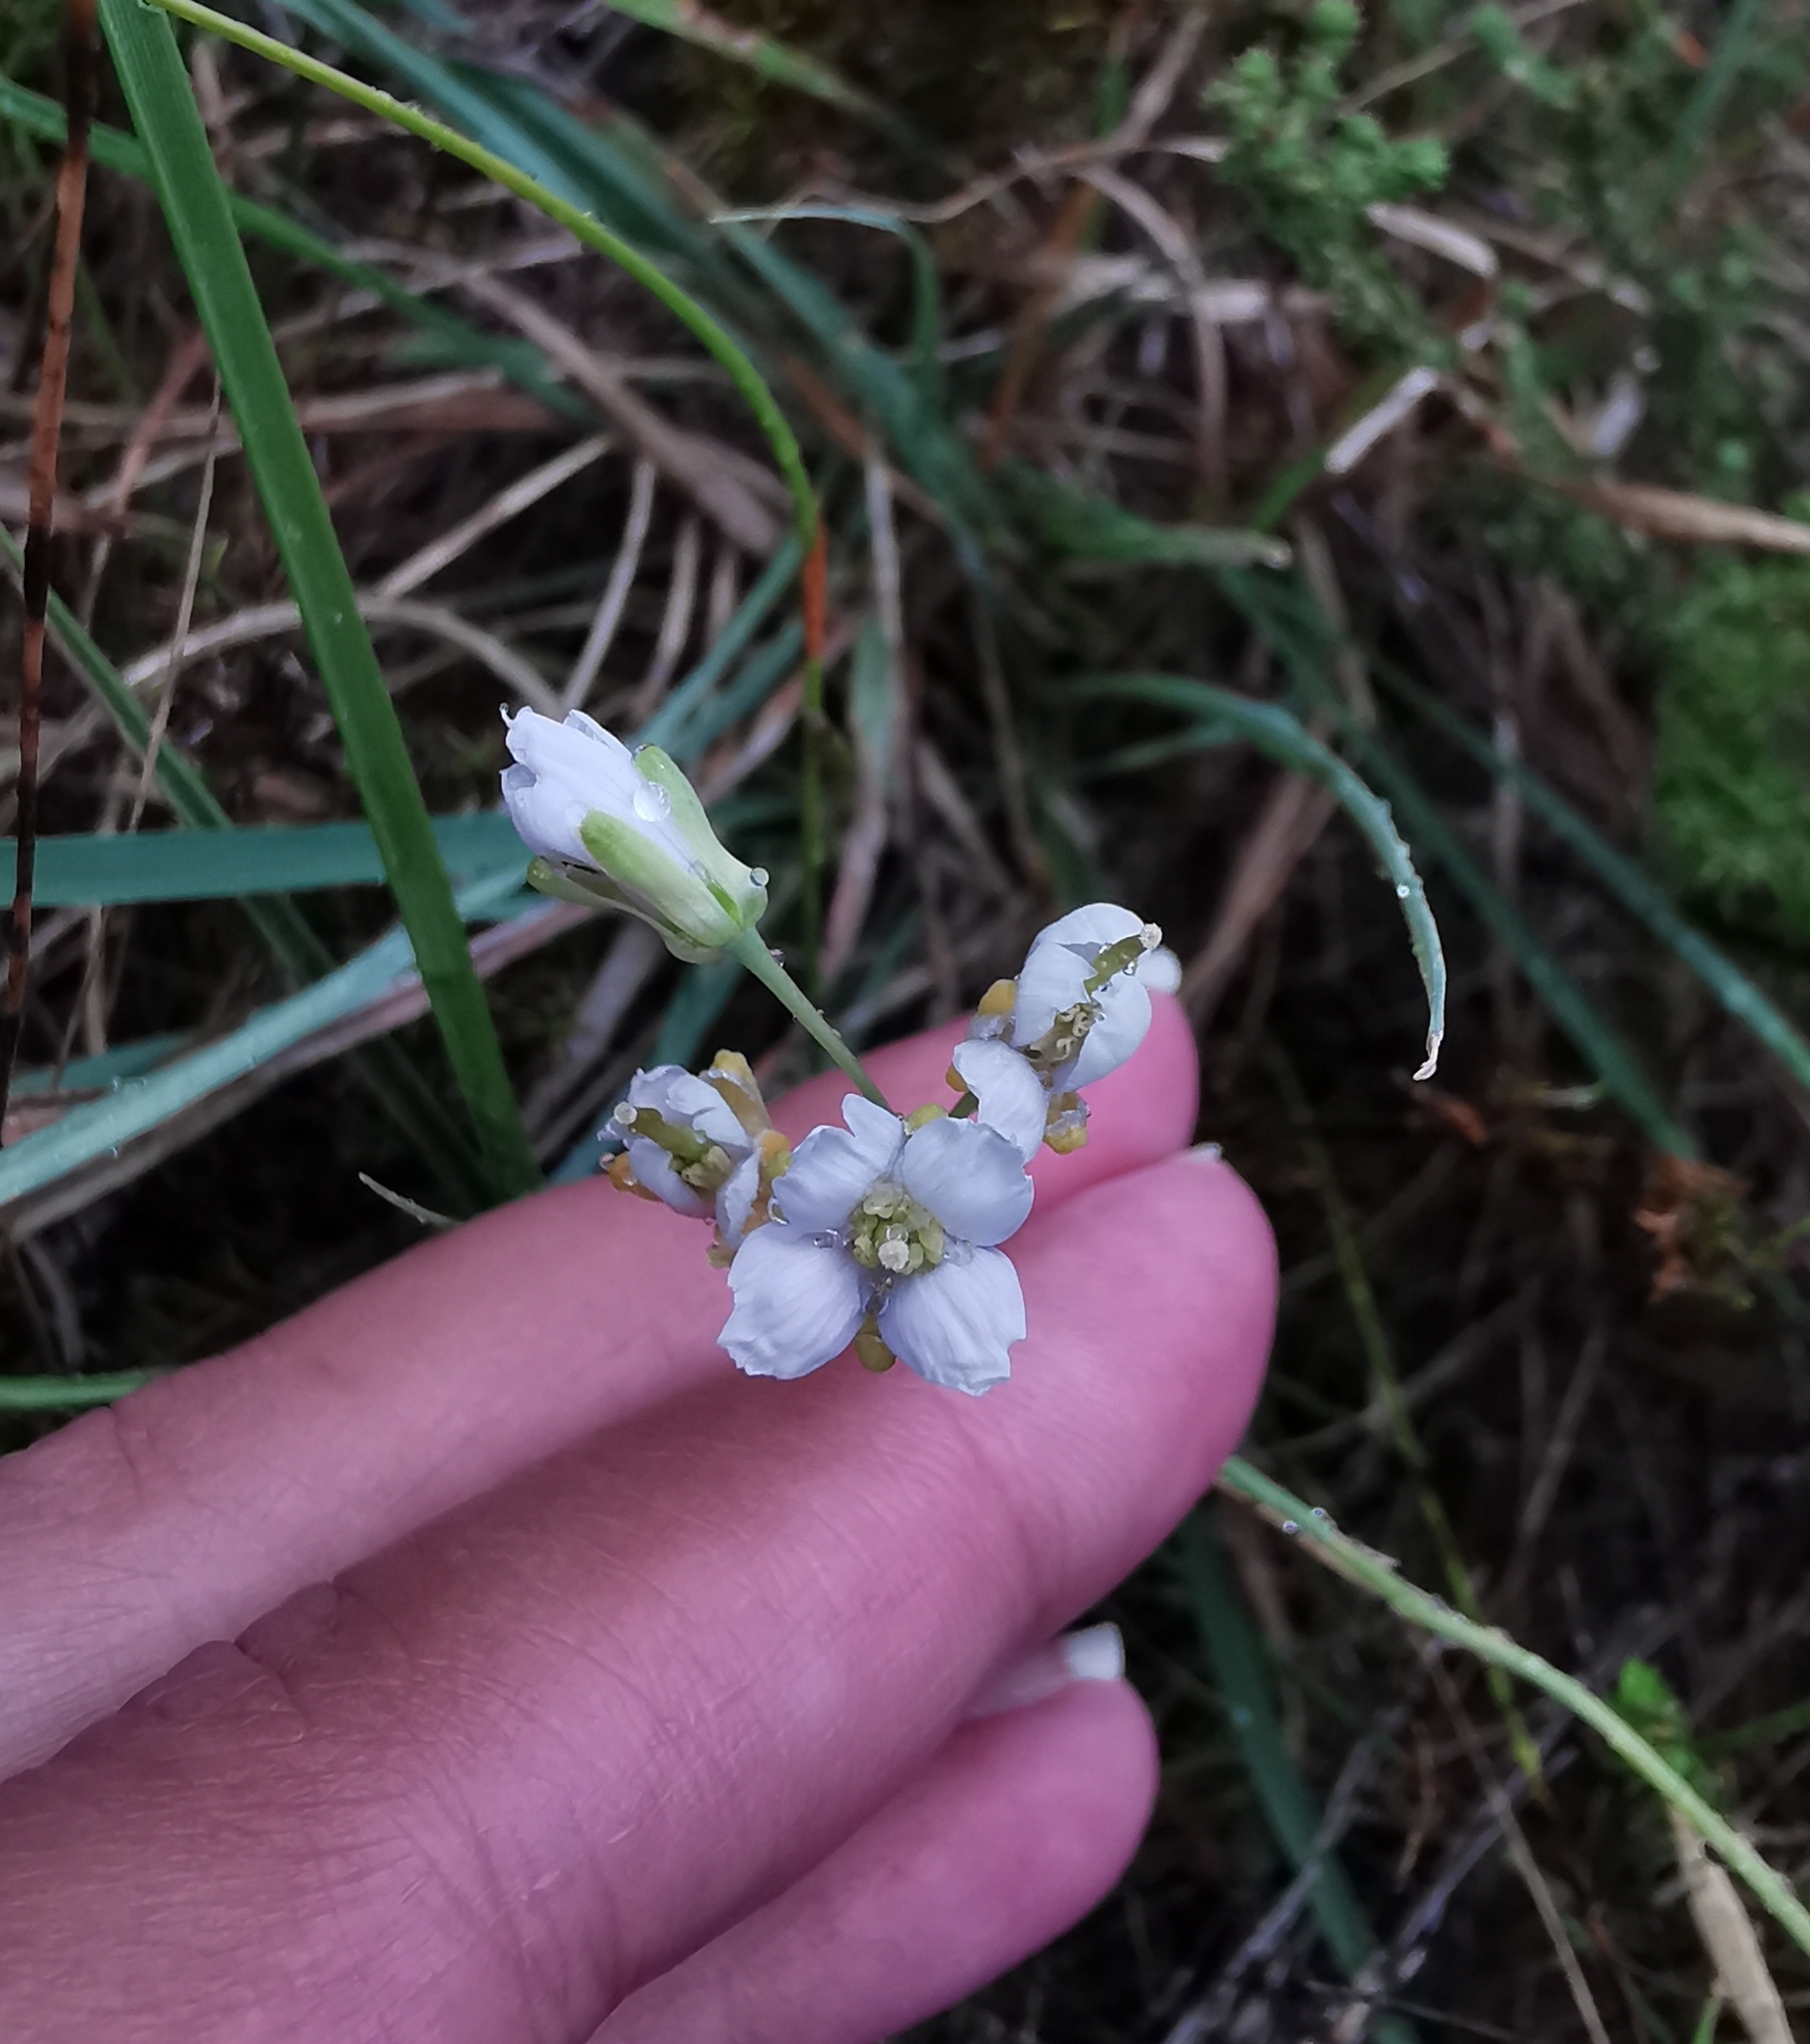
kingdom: Plantae
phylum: Tracheophyta
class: Magnoliopsida
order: Brassicales
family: Brassicaceae
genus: Heliophila
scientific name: Heliophila linearis
